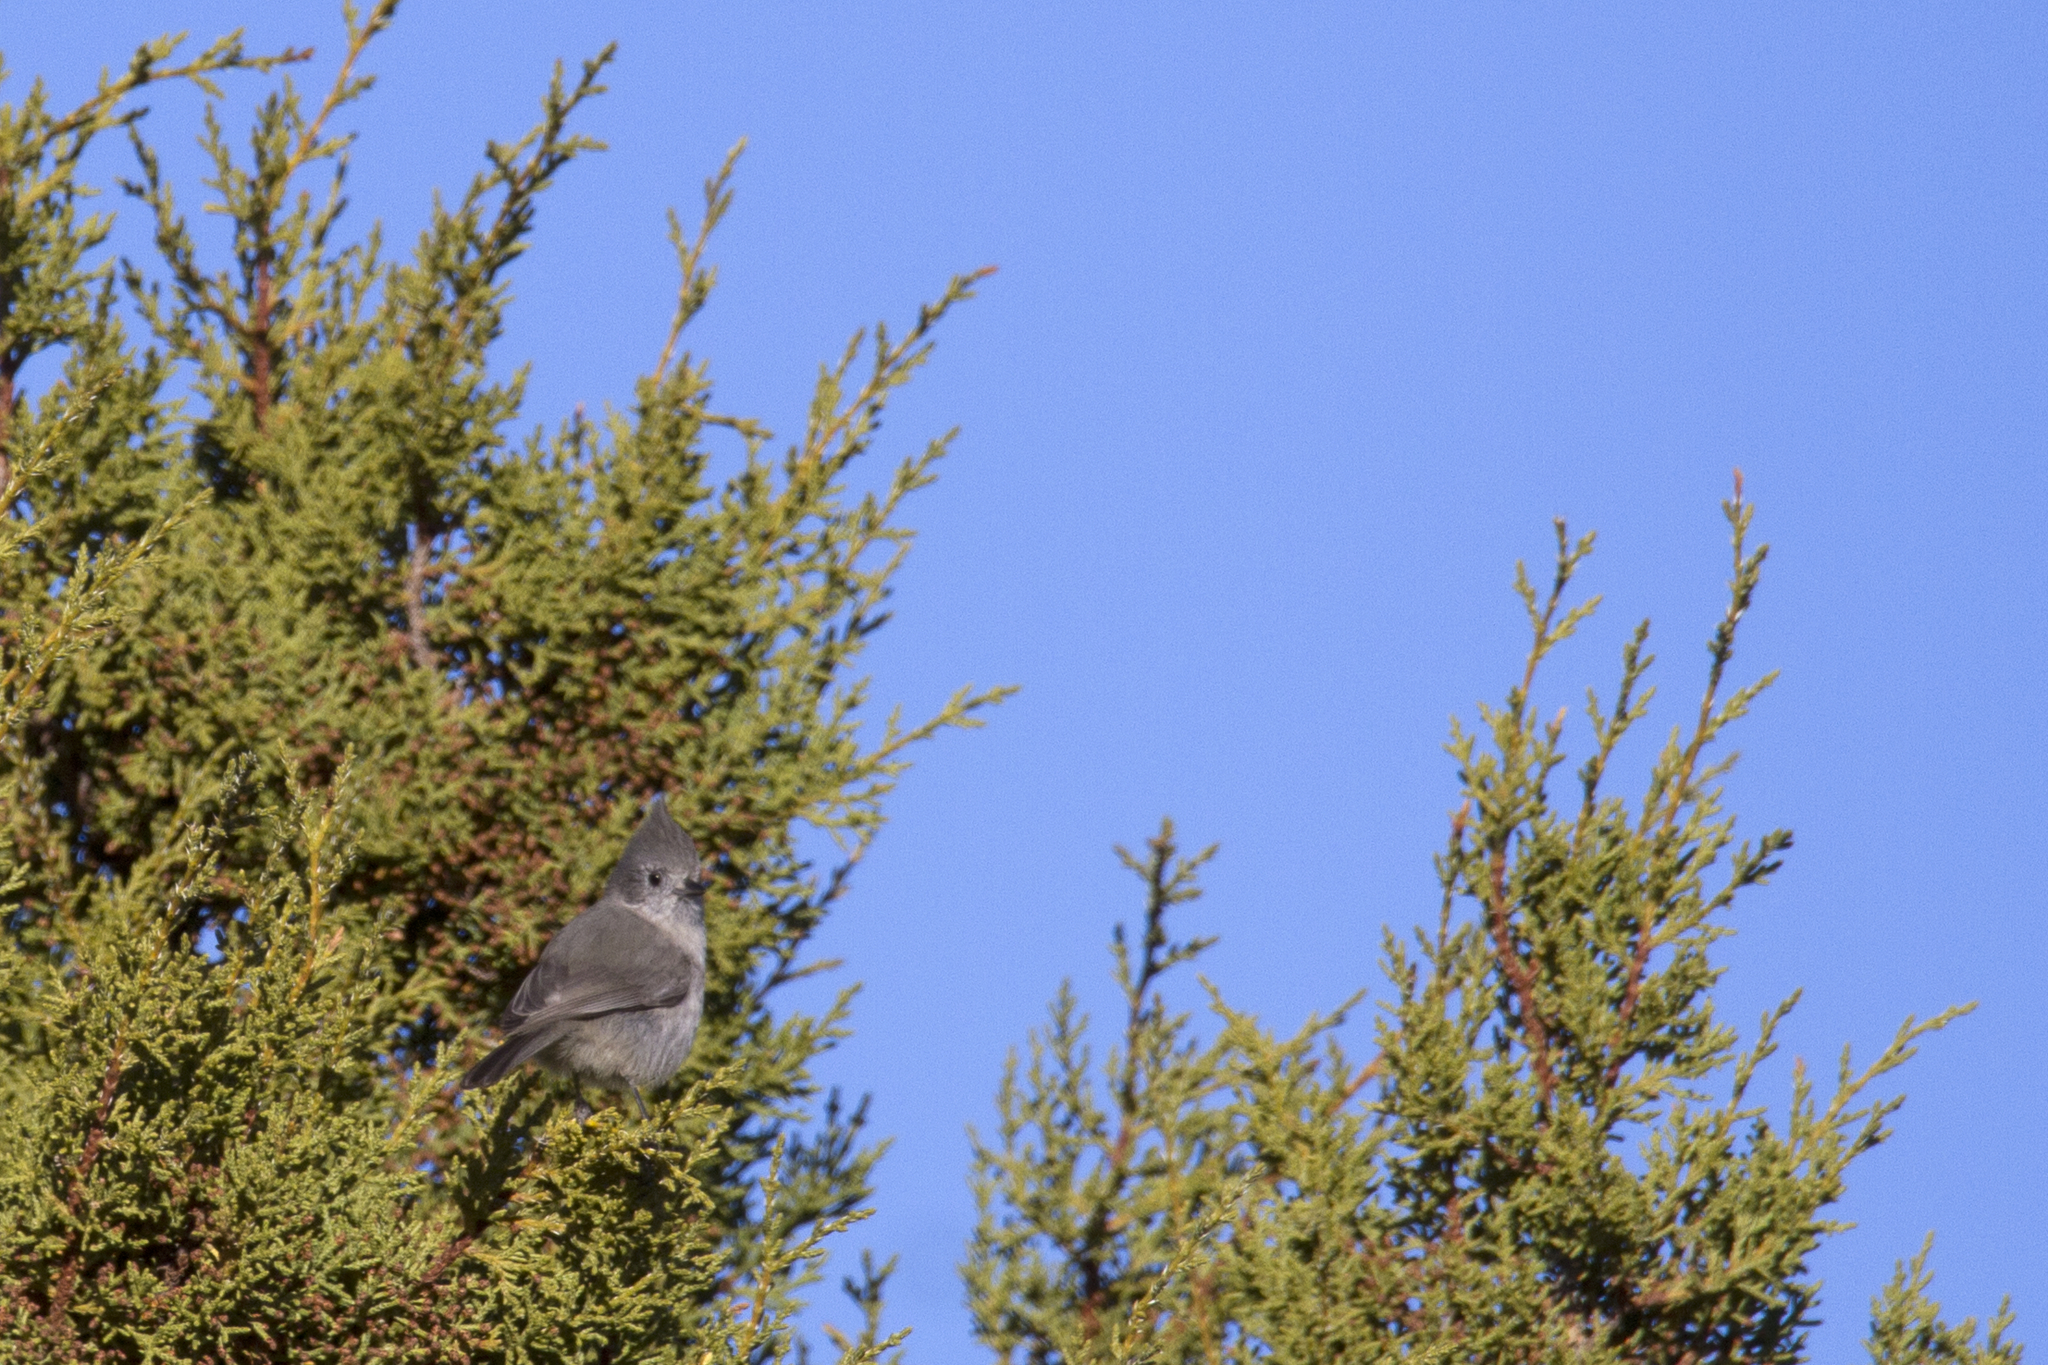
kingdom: Animalia
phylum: Chordata
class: Aves
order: Passeriformes
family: Paridae
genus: Baeolophus
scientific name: Baeolophus ridgwayi
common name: Juniper titmouse
